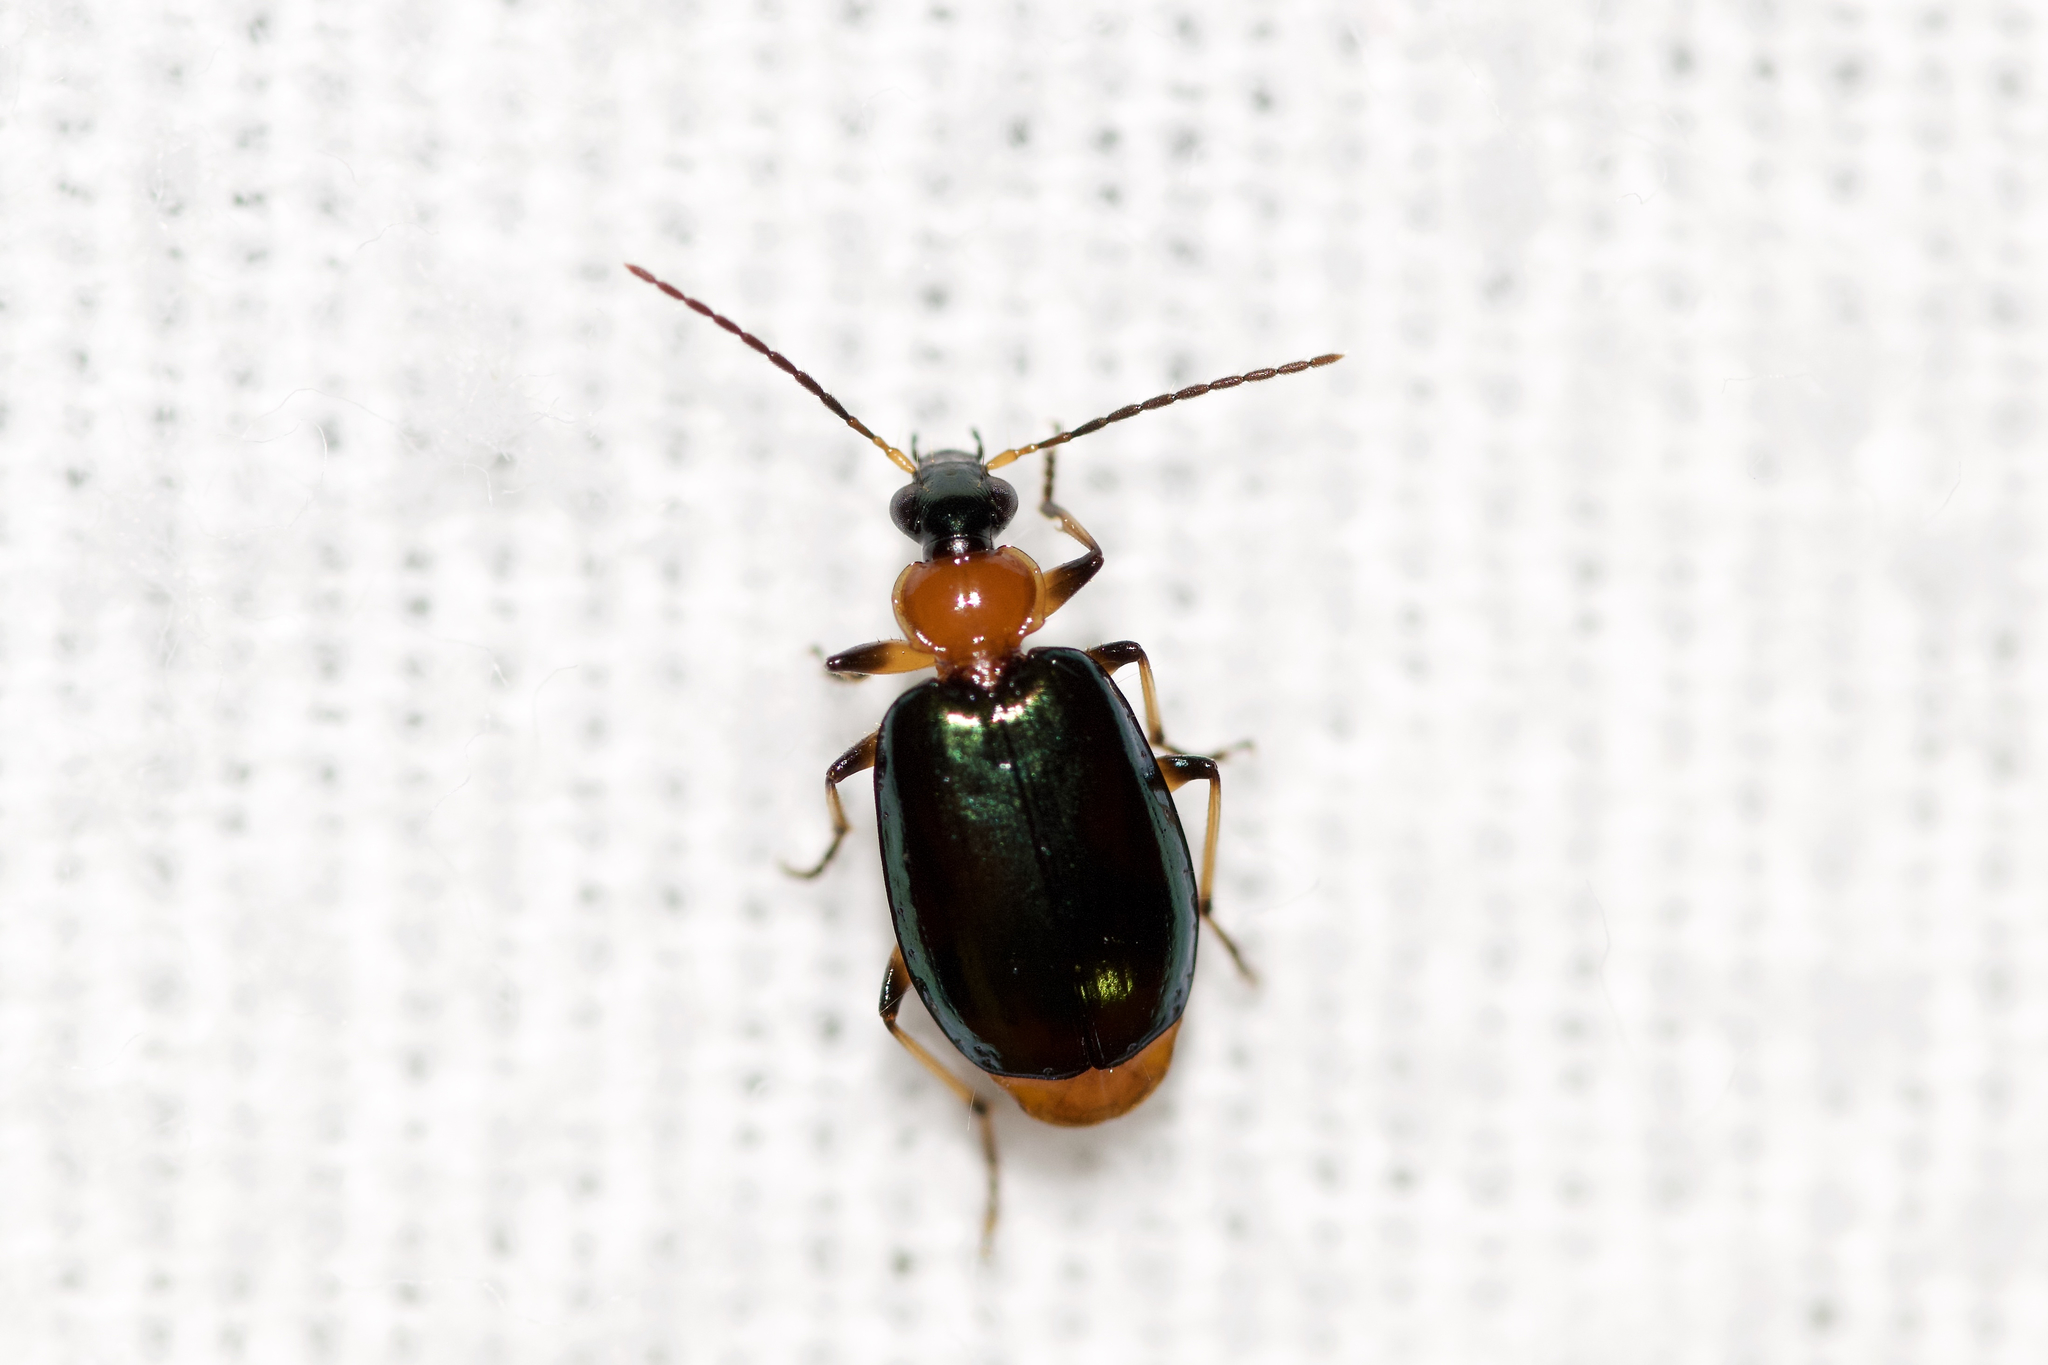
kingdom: Animalia
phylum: Arthropoda
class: Insecta
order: Coleoptera
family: Carabidae
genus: Lebia
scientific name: Lebia viridipennis
